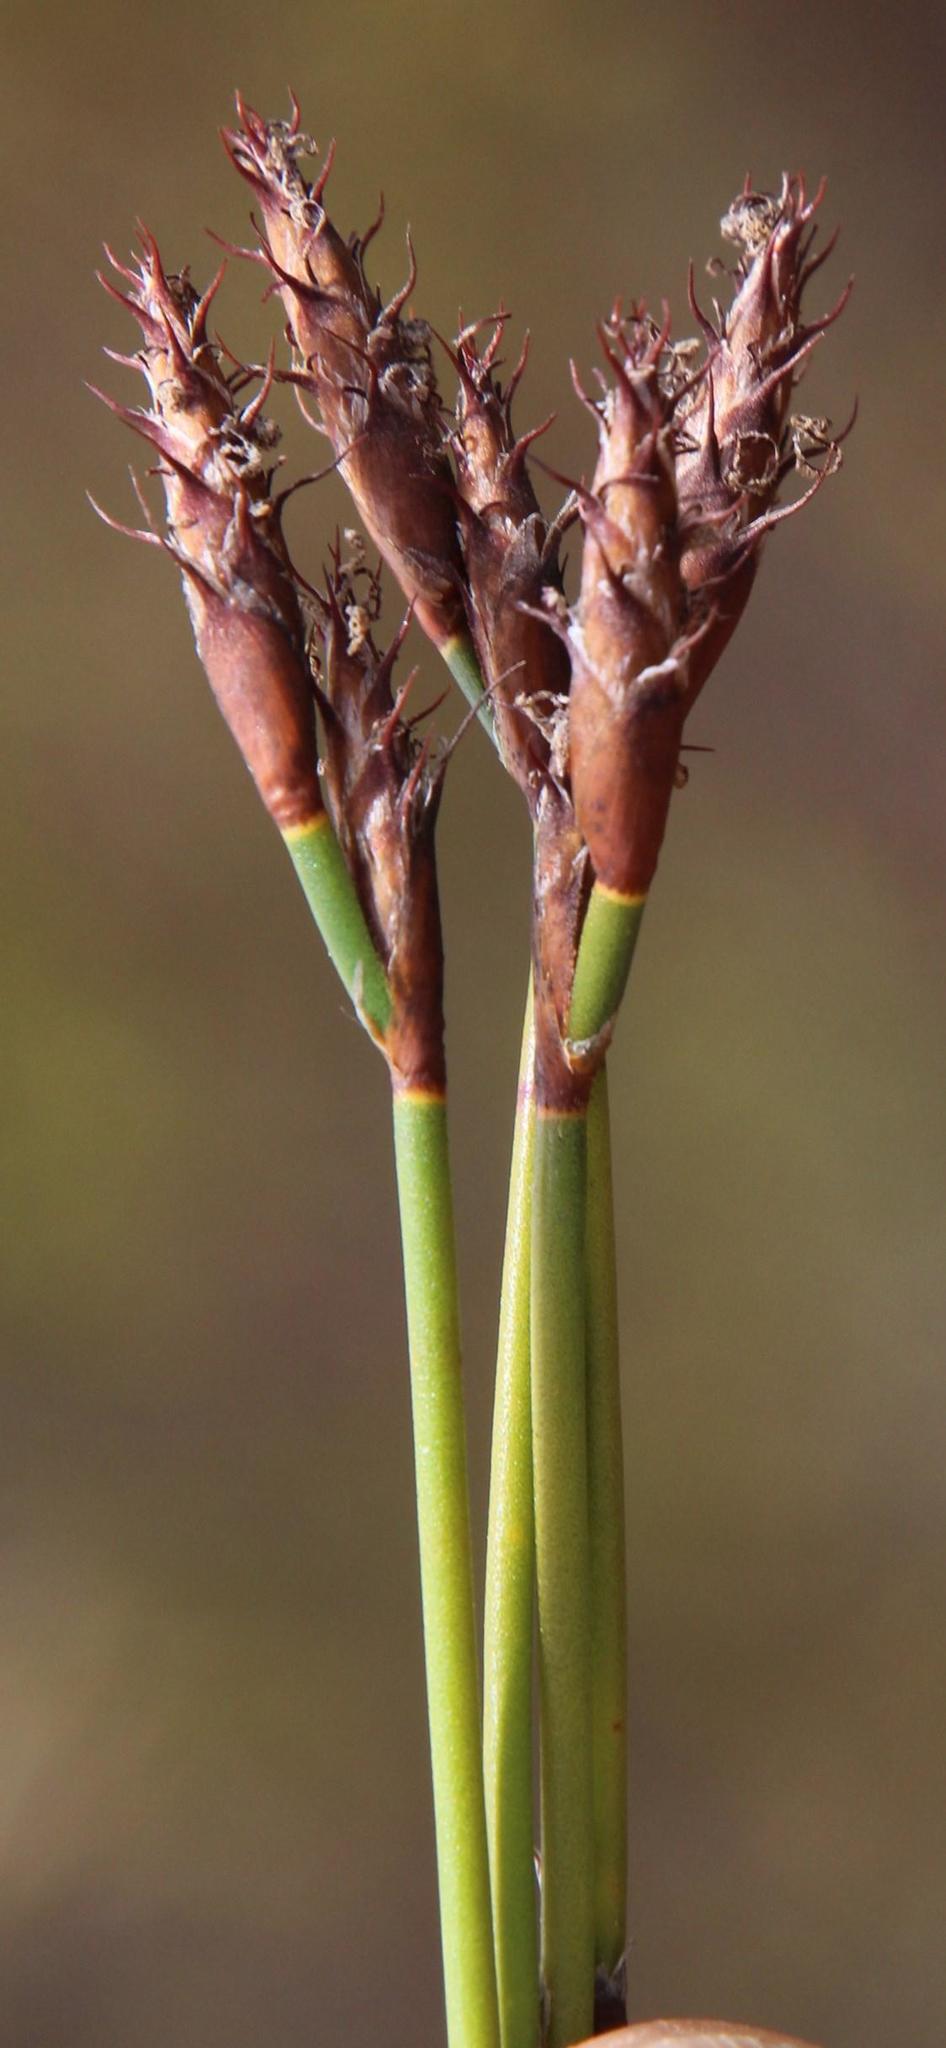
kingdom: Plantae
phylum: Tracheophyta
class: Liliopsida
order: Poales
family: Restionaceae
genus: Restio
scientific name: Restio capensis
